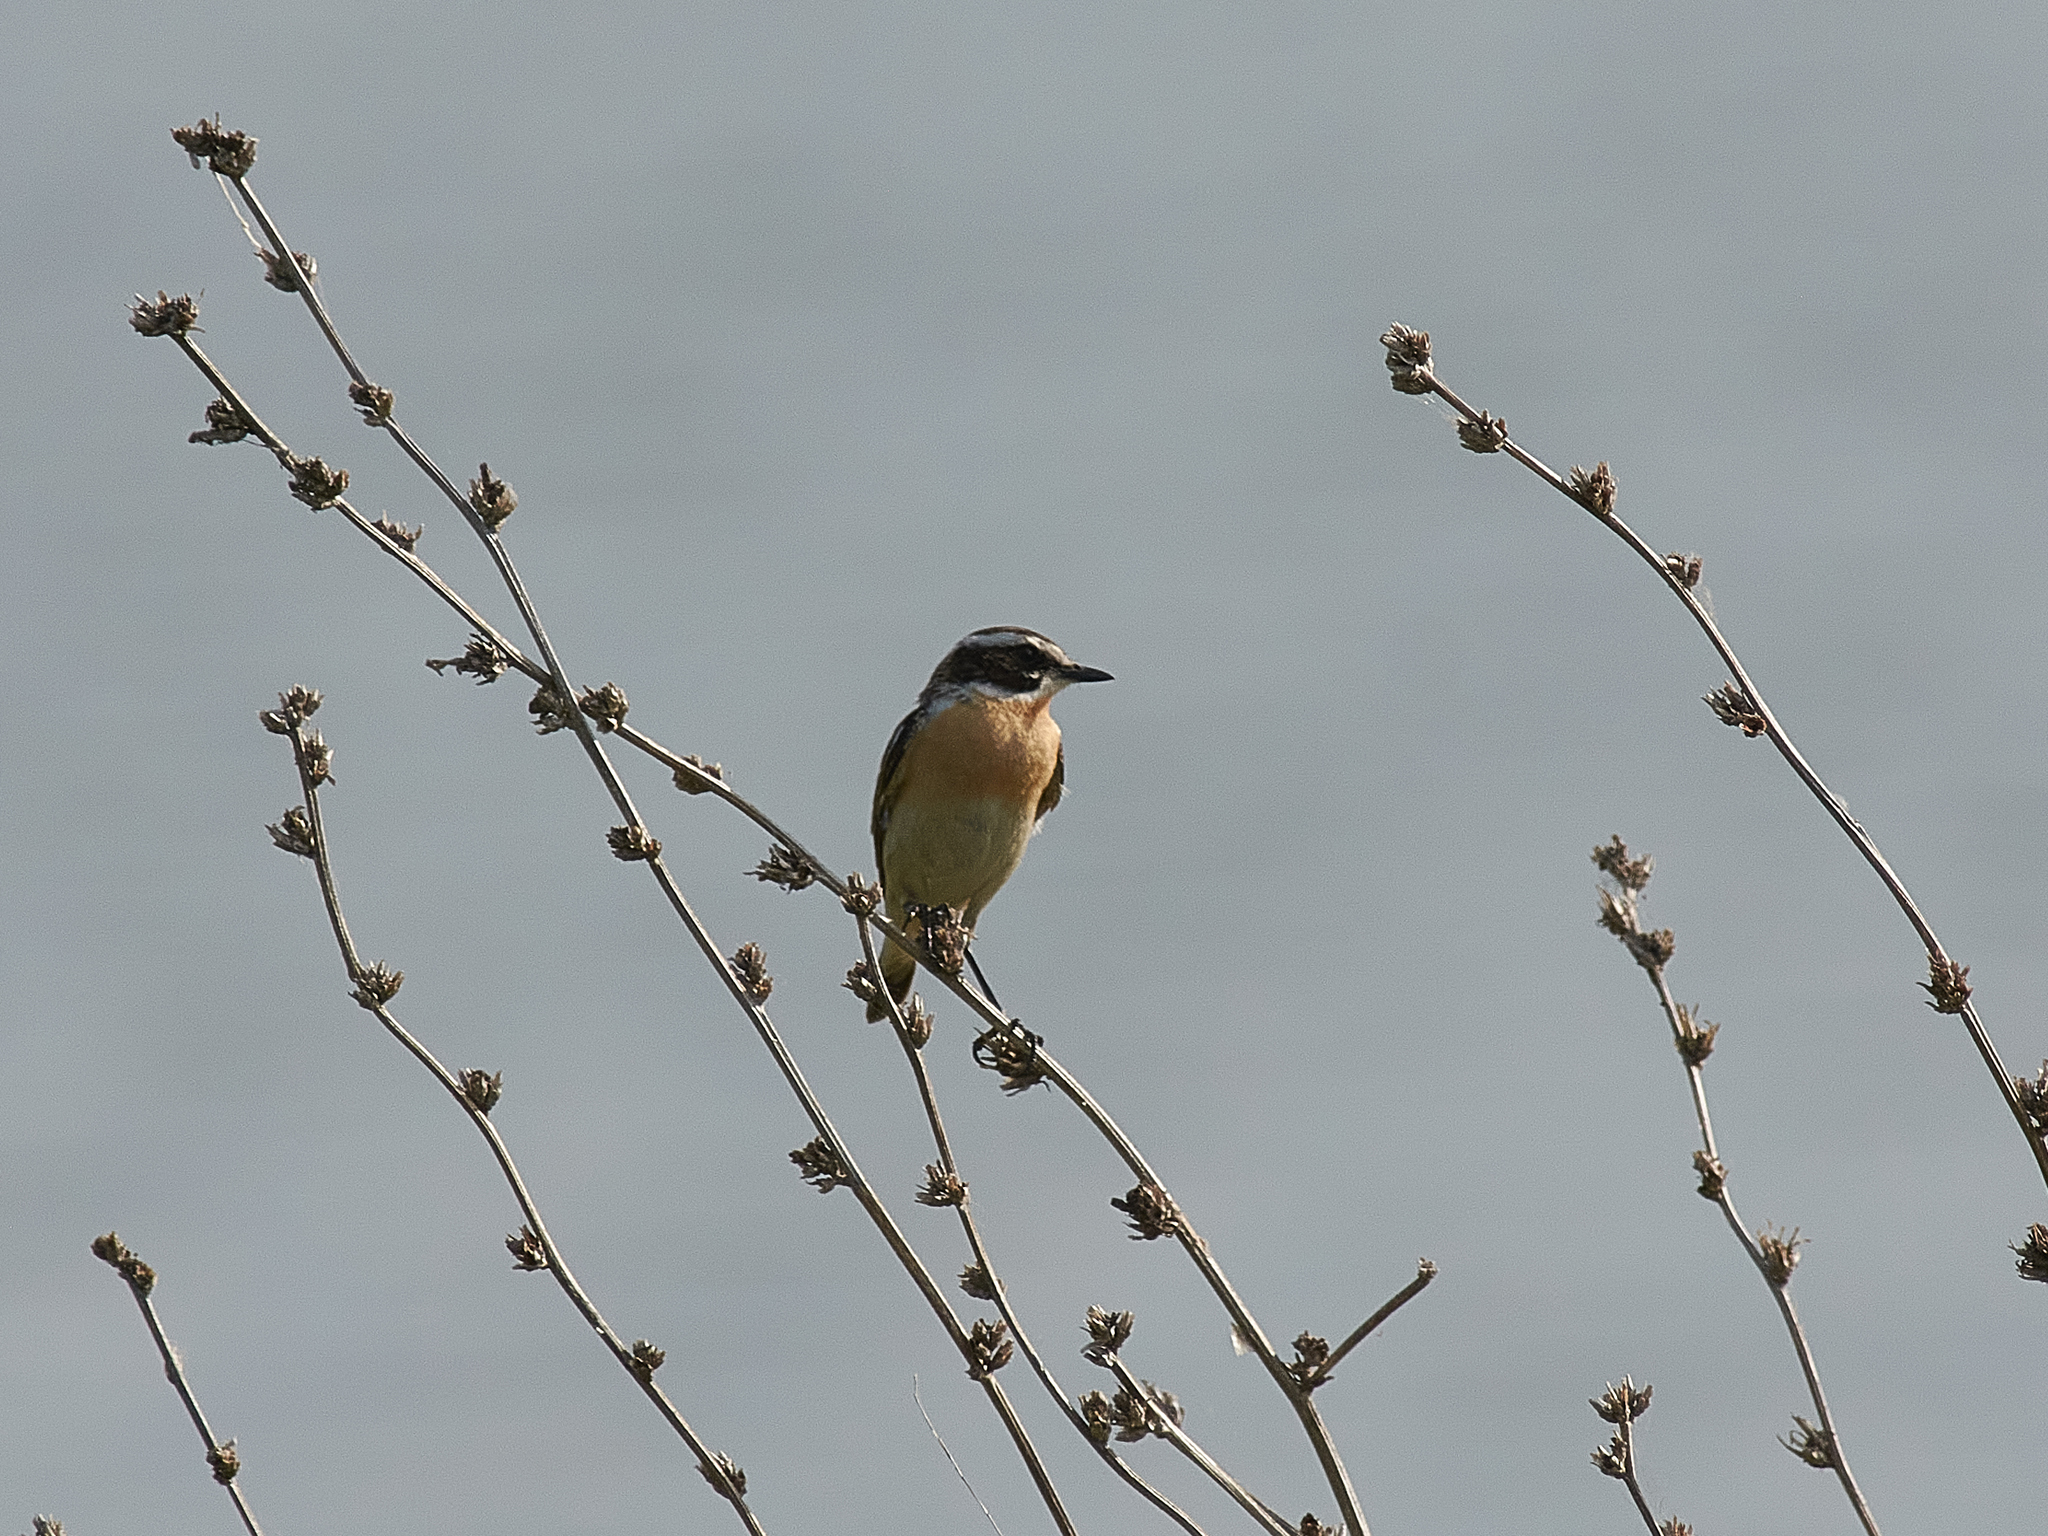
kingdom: Animalia
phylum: Chordata
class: Aves
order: Passeriformes
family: Muscicapidae
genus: Saxicola
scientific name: Saxicola rubetra
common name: Whinchat
